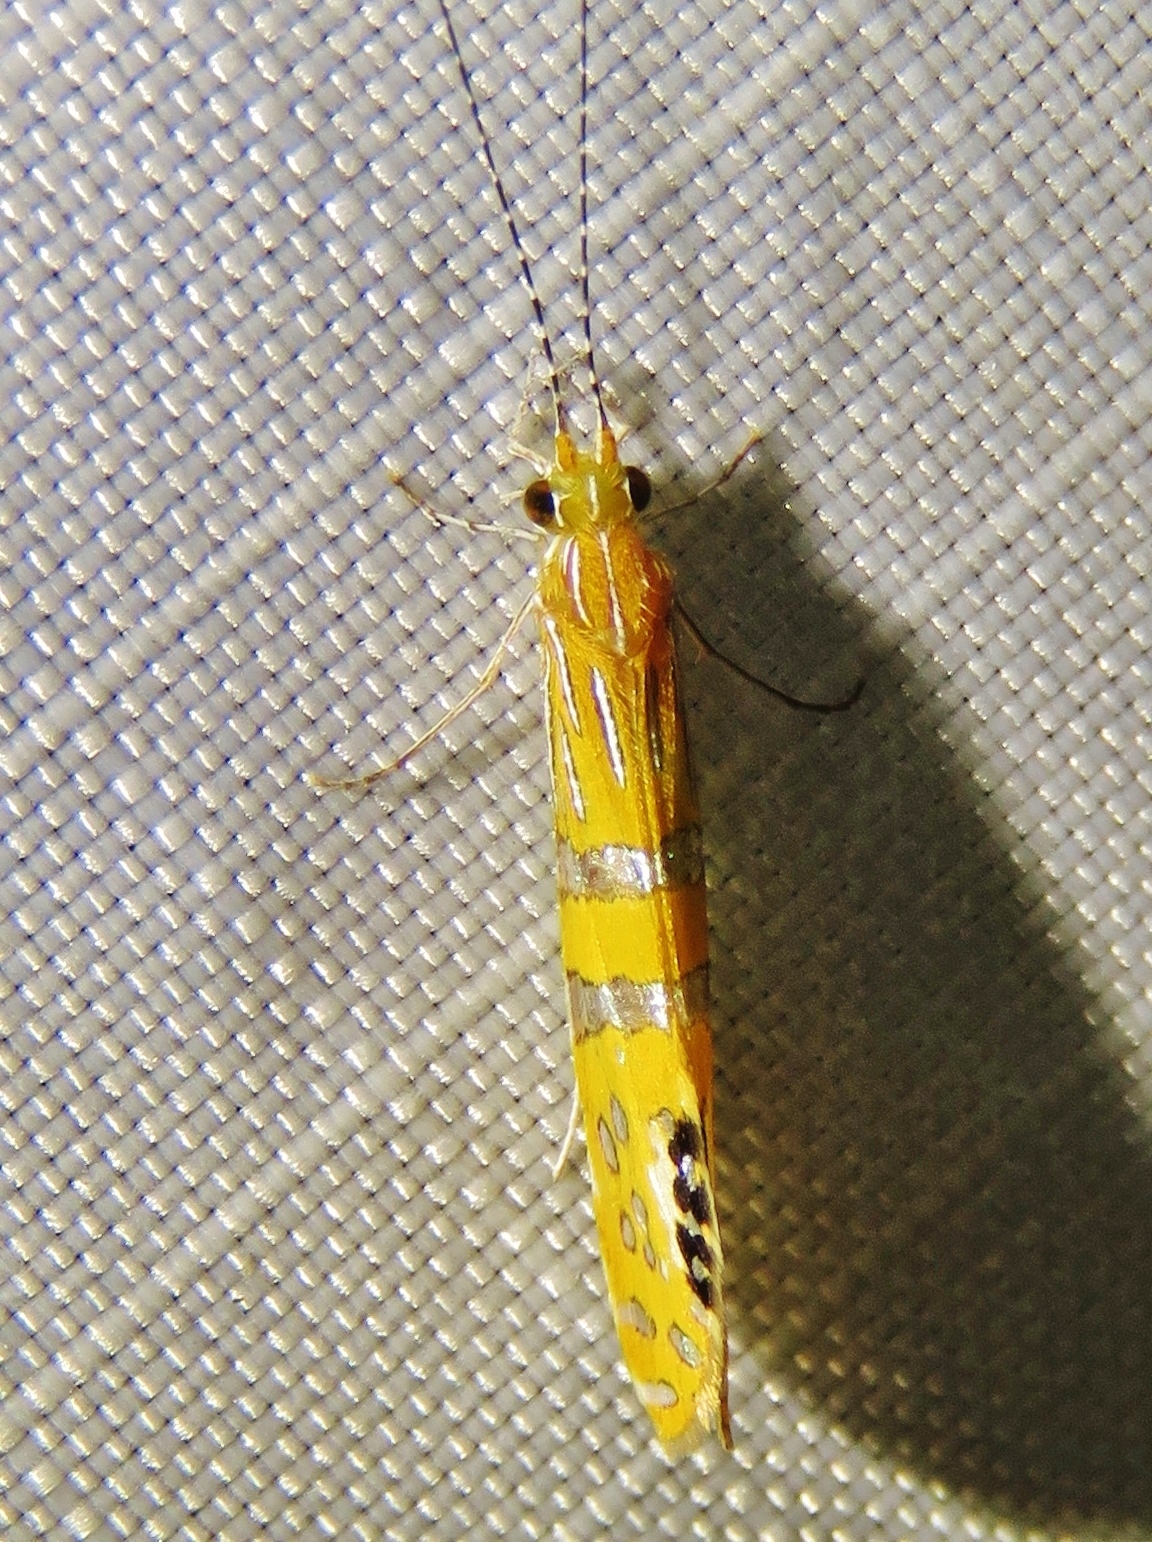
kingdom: Animalia
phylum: Arthropoda
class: Insecta
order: Trichoptera
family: Leptoceridae
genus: Nectopsyche
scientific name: Nectopsyche ortizi
